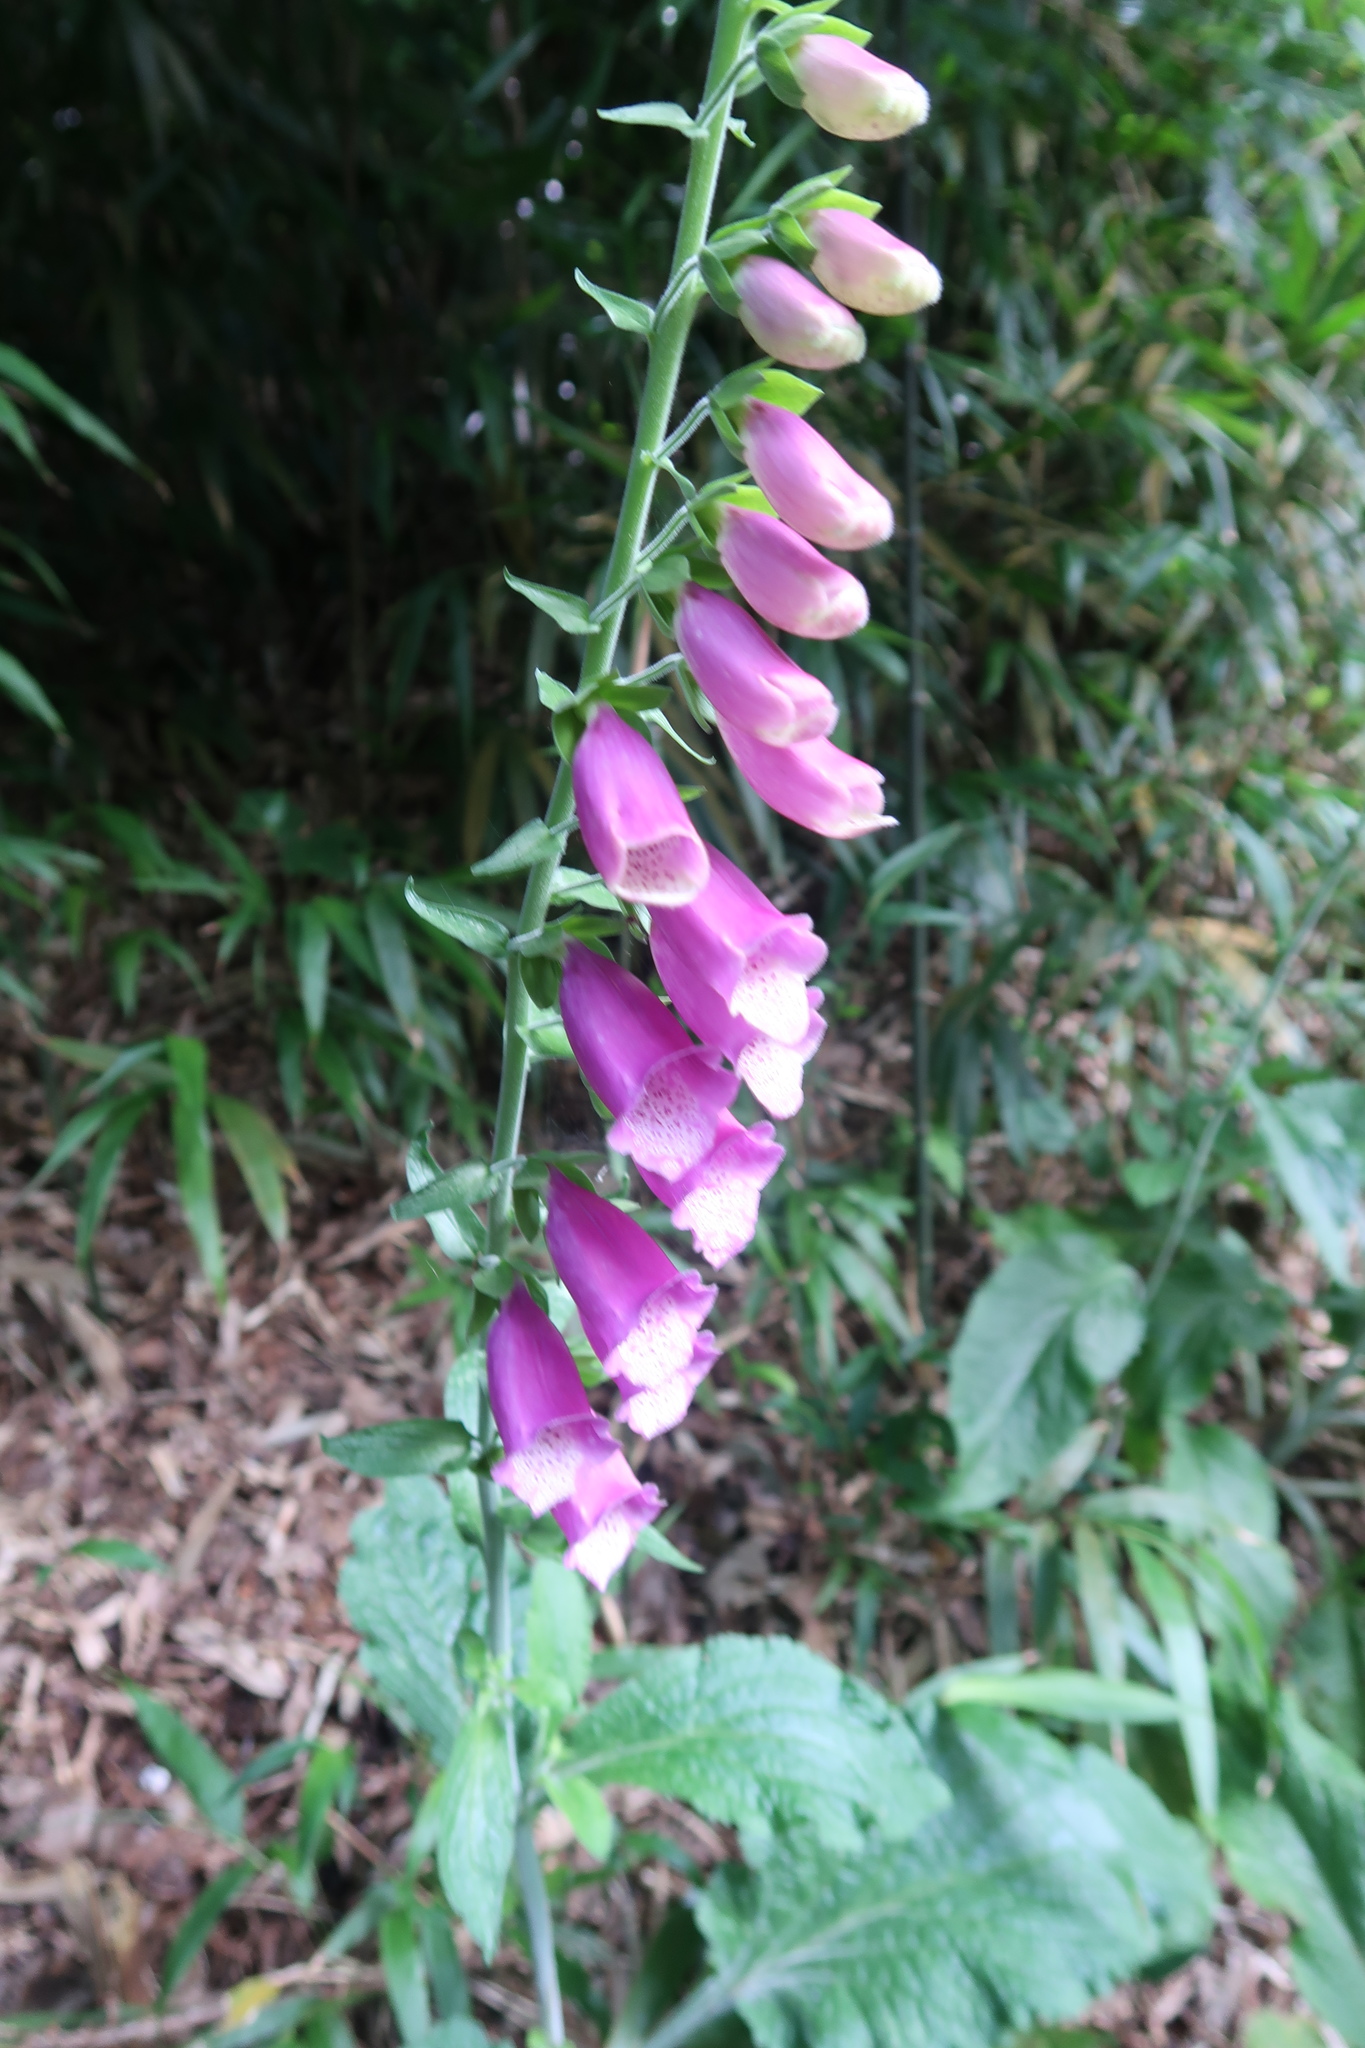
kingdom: Plantae
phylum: Tracheophyta
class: Magnoliopsida
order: Lamiales
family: Plantaginaceae
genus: Digitalis
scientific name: Digitalis purpurea
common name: Foxglove
